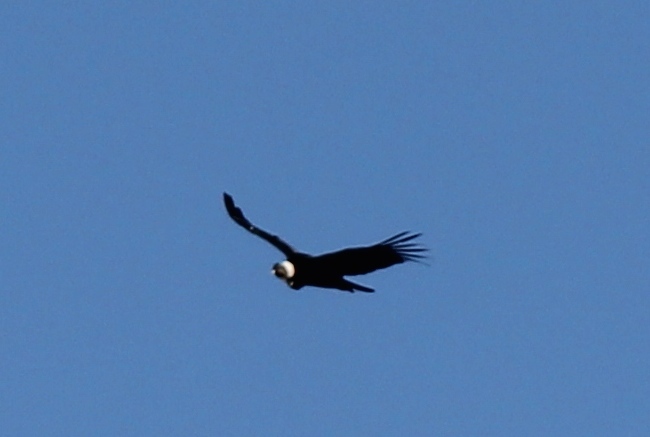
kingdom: Animalia
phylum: Chordata
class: Aves
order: Accipitriformes
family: Cathartidae
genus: Vultur
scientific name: Vultur gryphus
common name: Andean condor
